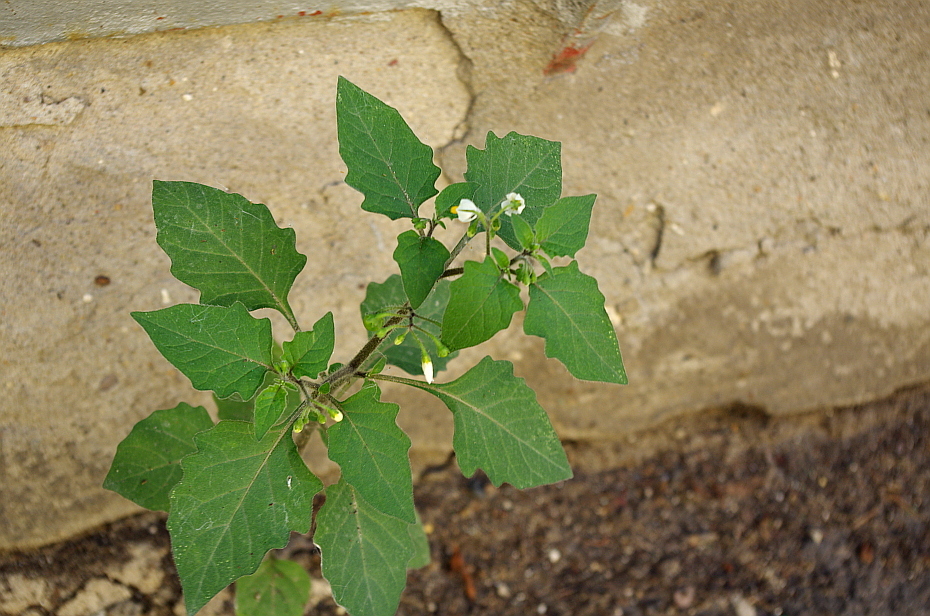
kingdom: Plantae
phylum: Tracheophyta
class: Magnoliopsida
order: Solanales
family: Solanaceae
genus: Solanum
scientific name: Solanum nigrum
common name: Black nightshade
